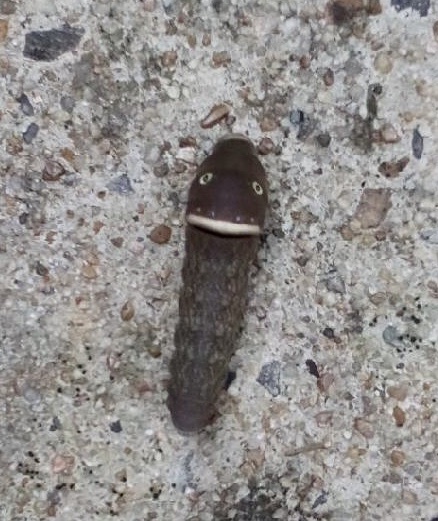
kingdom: Animalia
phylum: Arthropoda
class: Insecta
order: Lepidoptera
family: Papilionidae
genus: Papilio
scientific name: Papilio glaucus
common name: Tiger swallowtail
